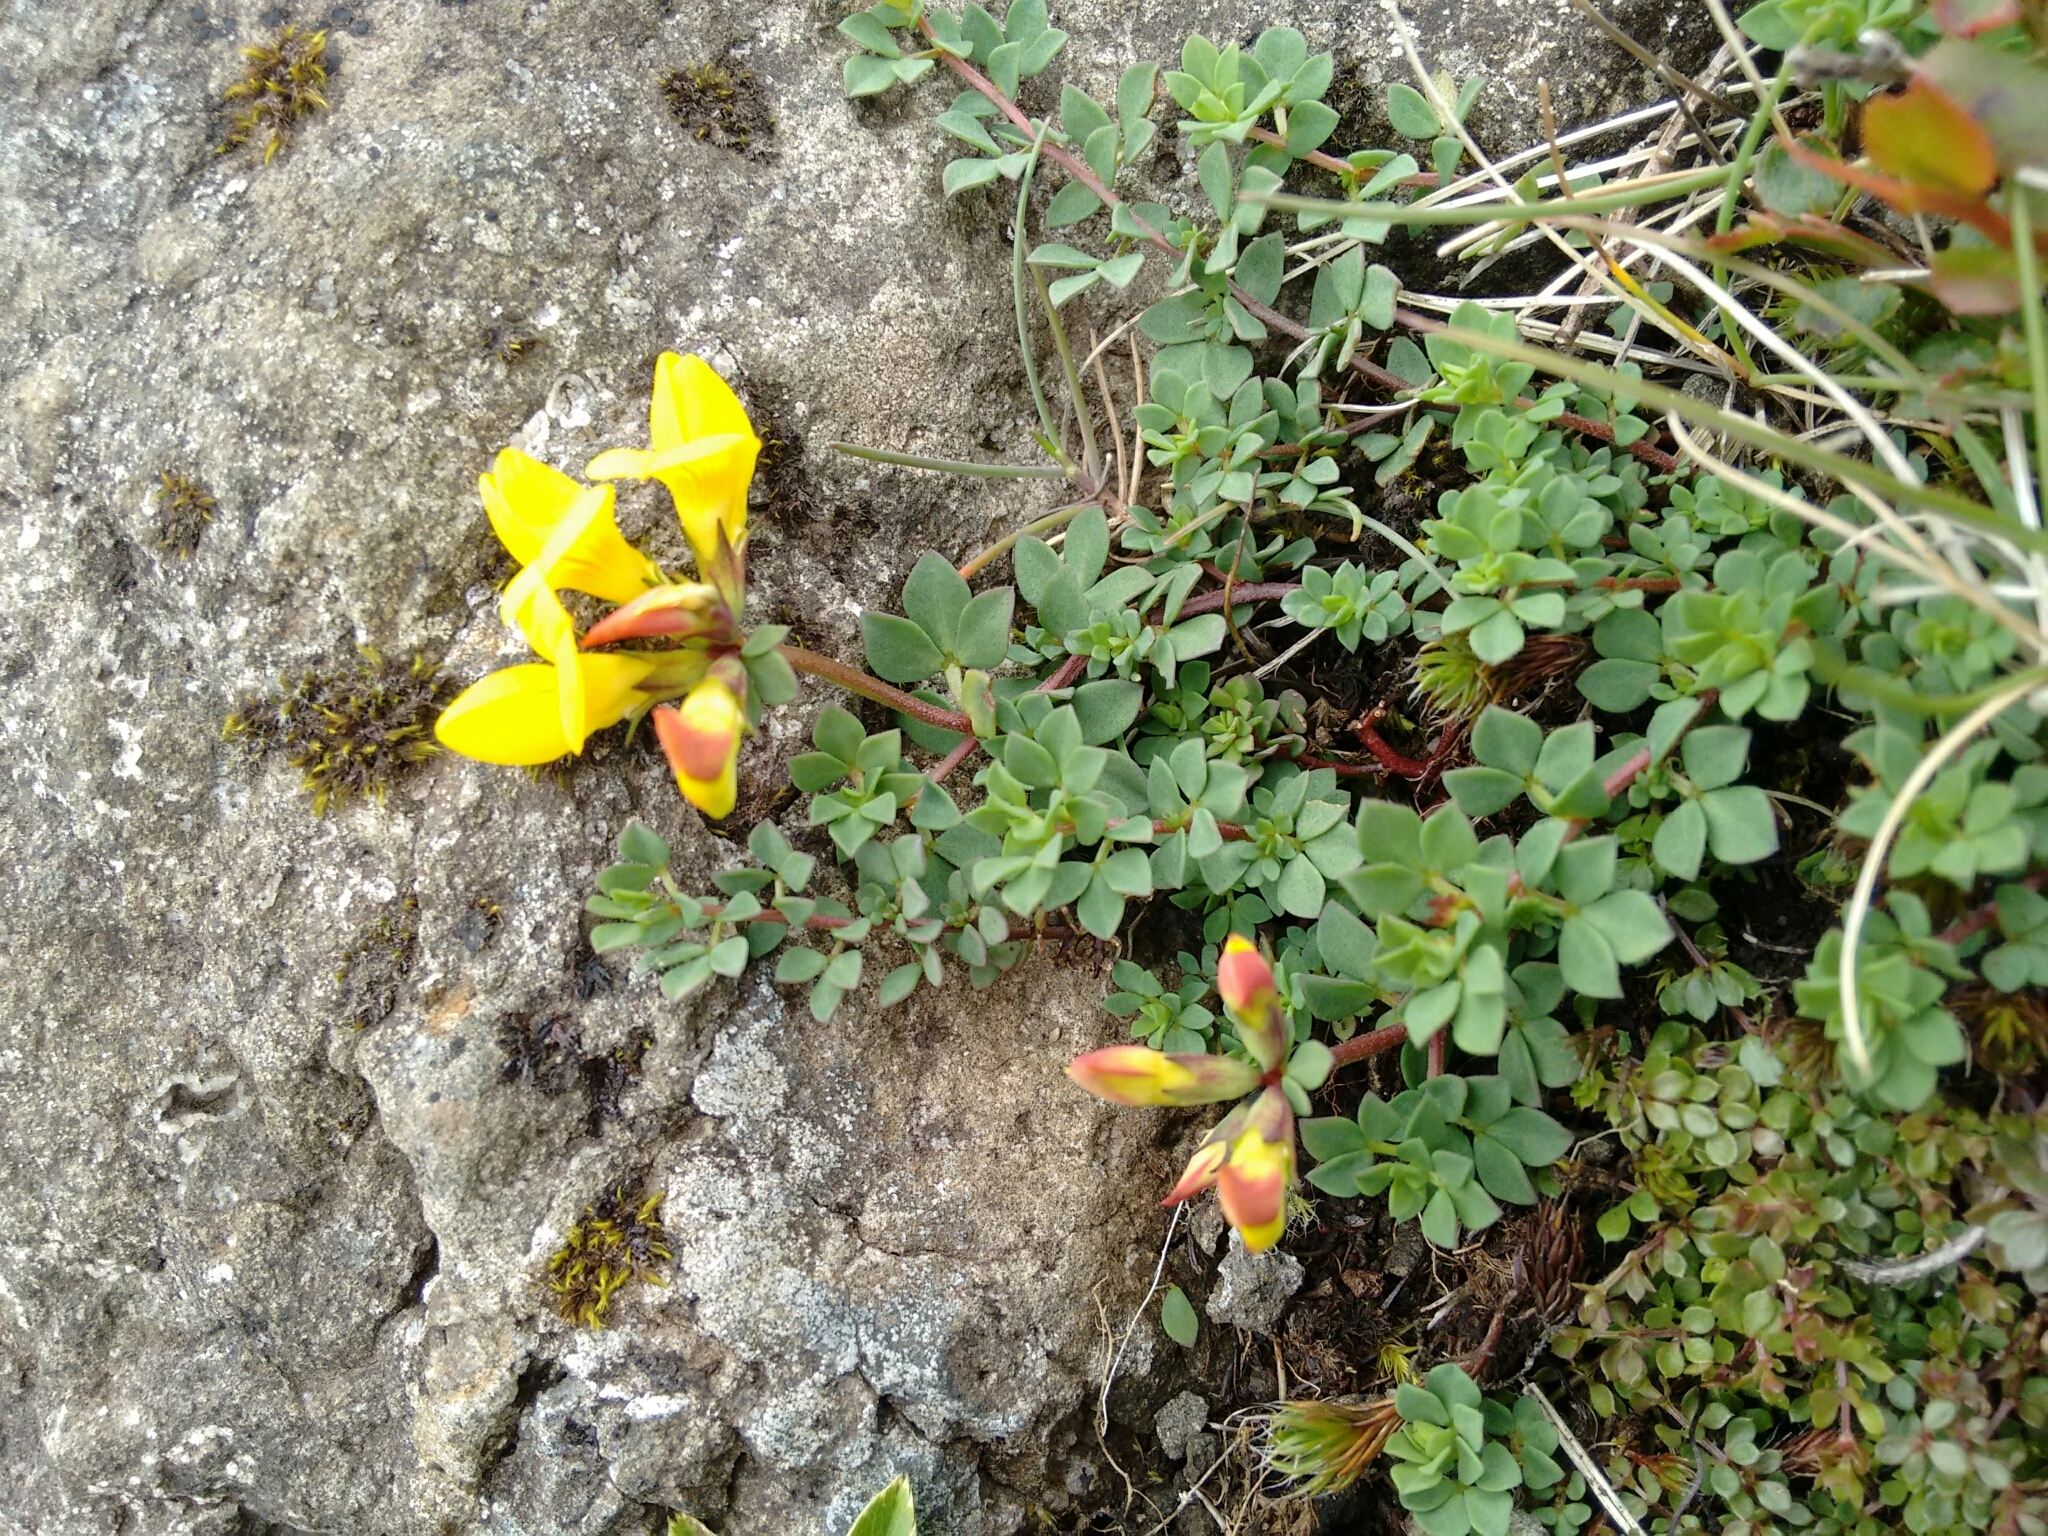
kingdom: Plantae
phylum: Tracheophyta
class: Magnoliopsida
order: Fabales
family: Fabaceae
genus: Lotus
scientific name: Lotus corniculatus
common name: Common bird's-foot-trefoil
